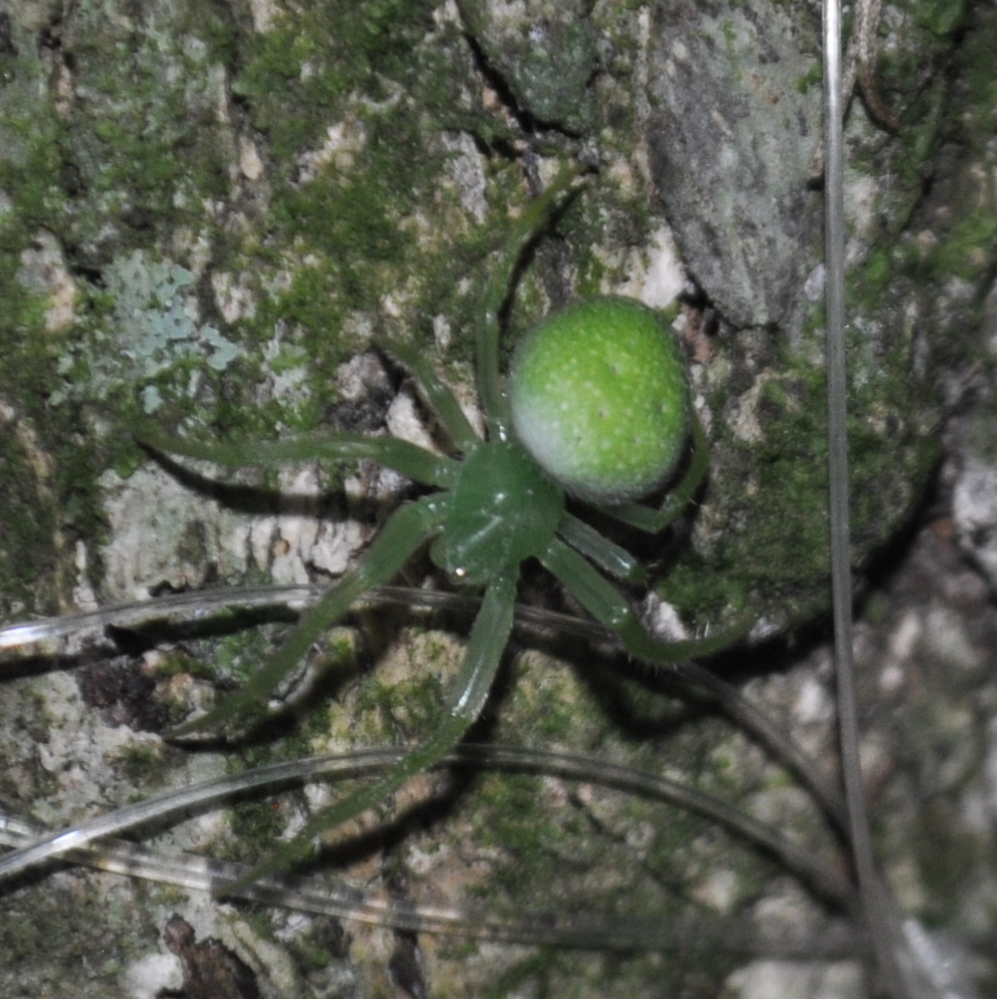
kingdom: Animalia
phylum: Arthropoda
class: Arachnida
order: Araneae
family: Araneidae
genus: Araneus
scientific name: Araneus uniformis
